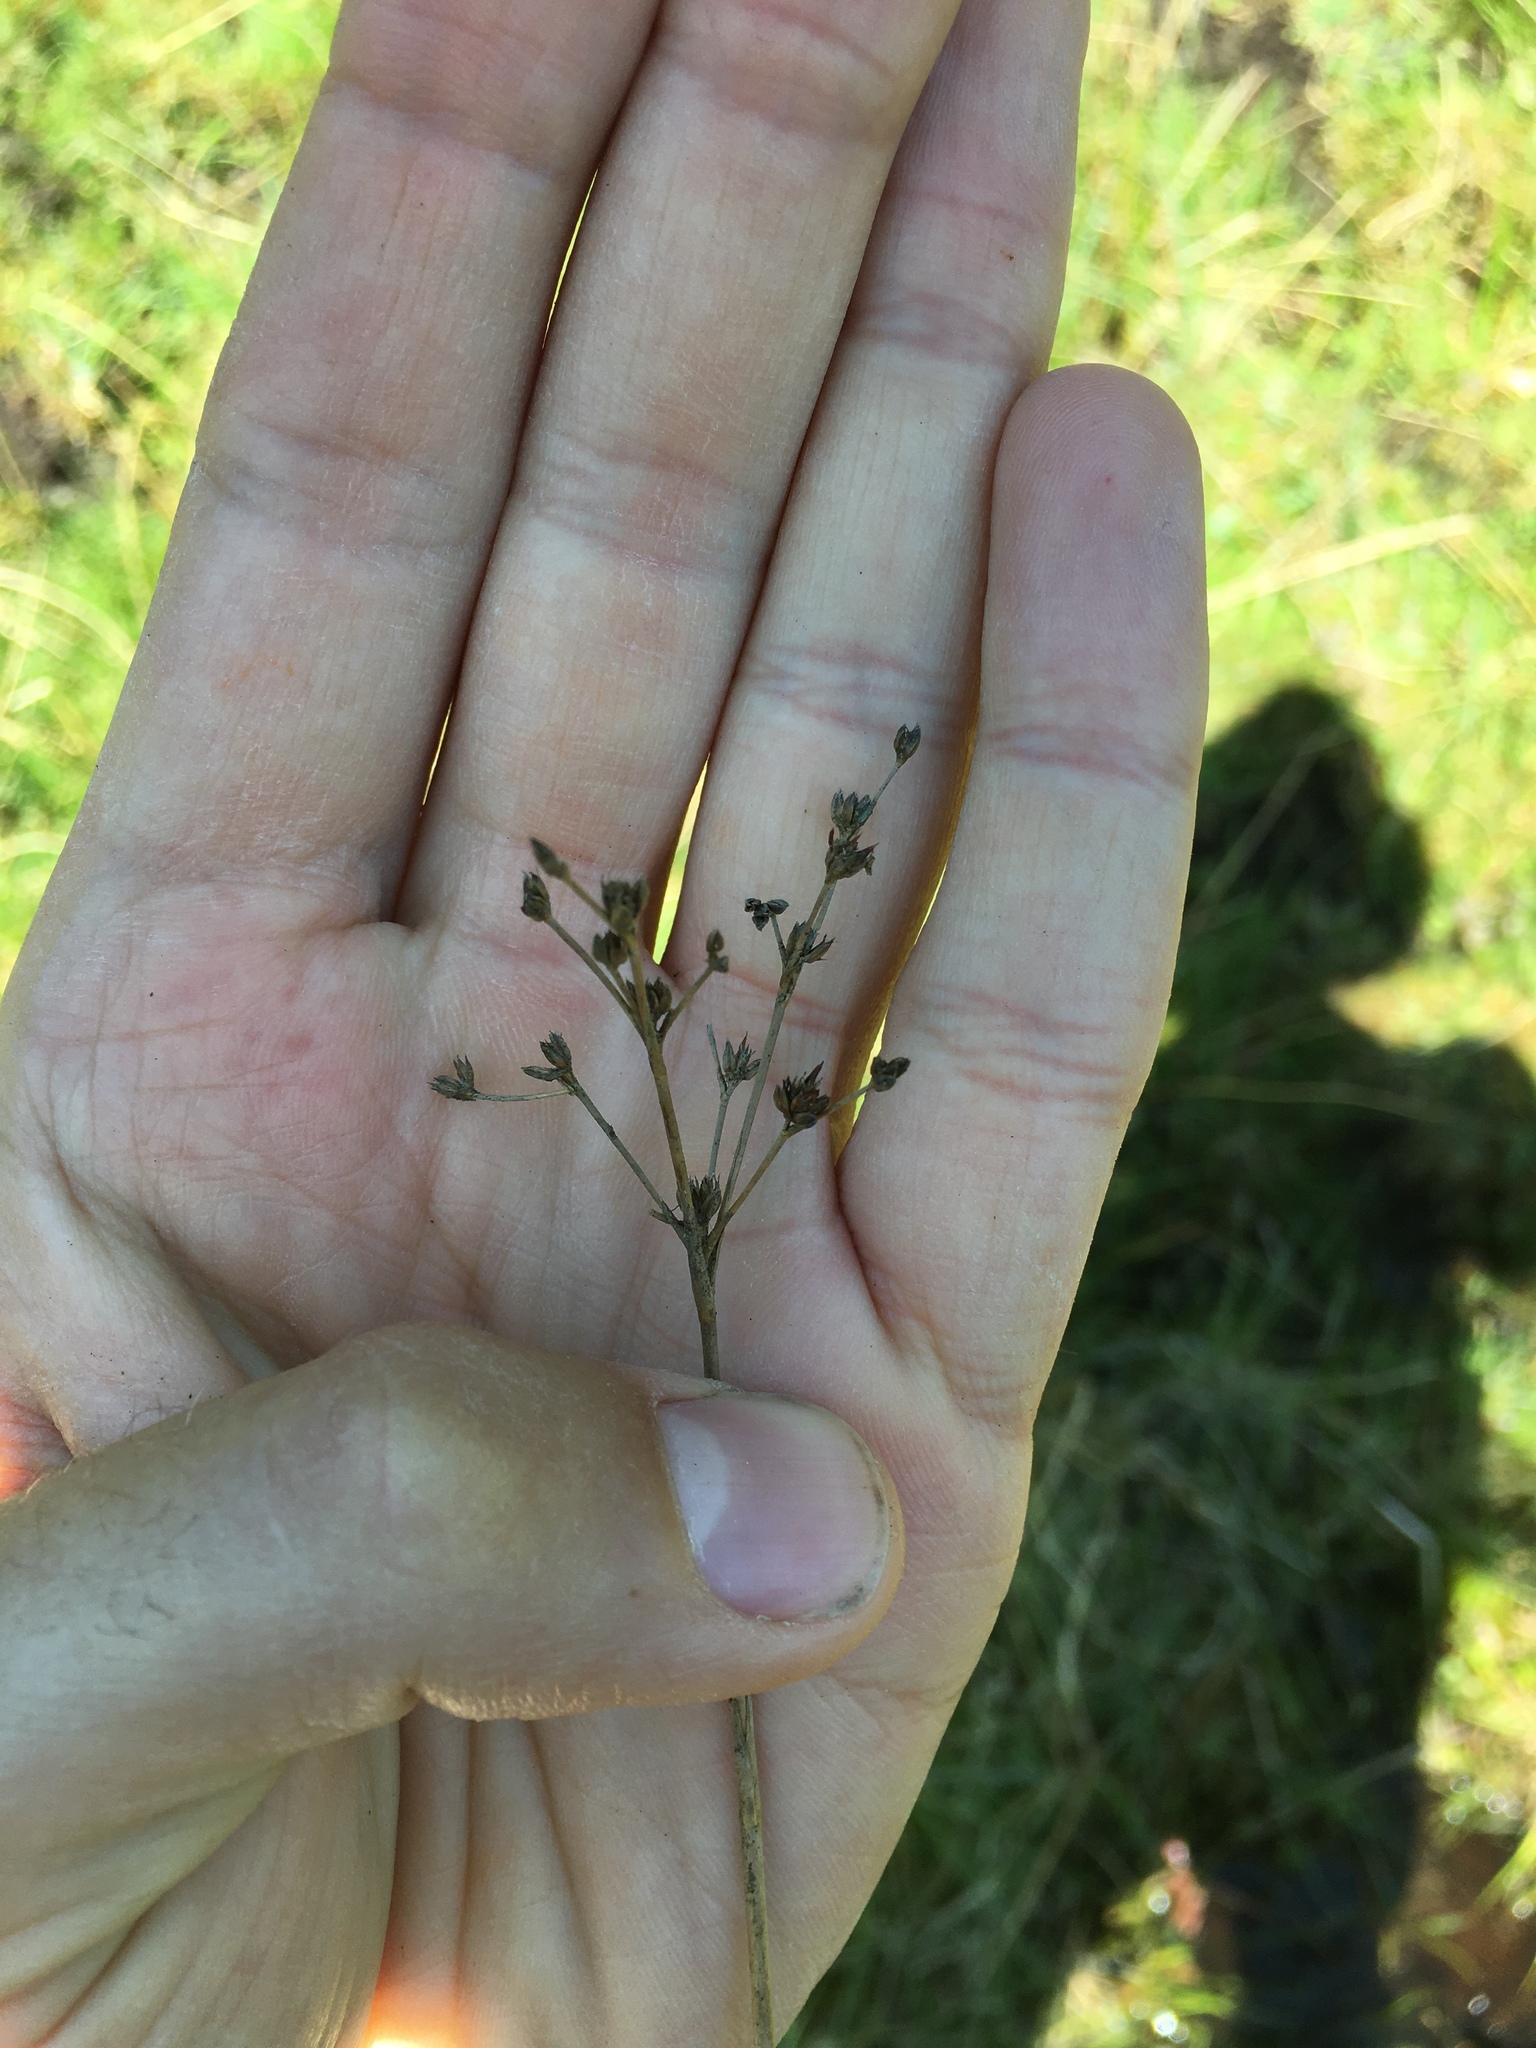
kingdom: Plantae
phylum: Tracheophyta
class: Liliopsida
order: Poales
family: Juncaceae
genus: Juncus
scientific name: Juncus articulatus
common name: Jointed rush
